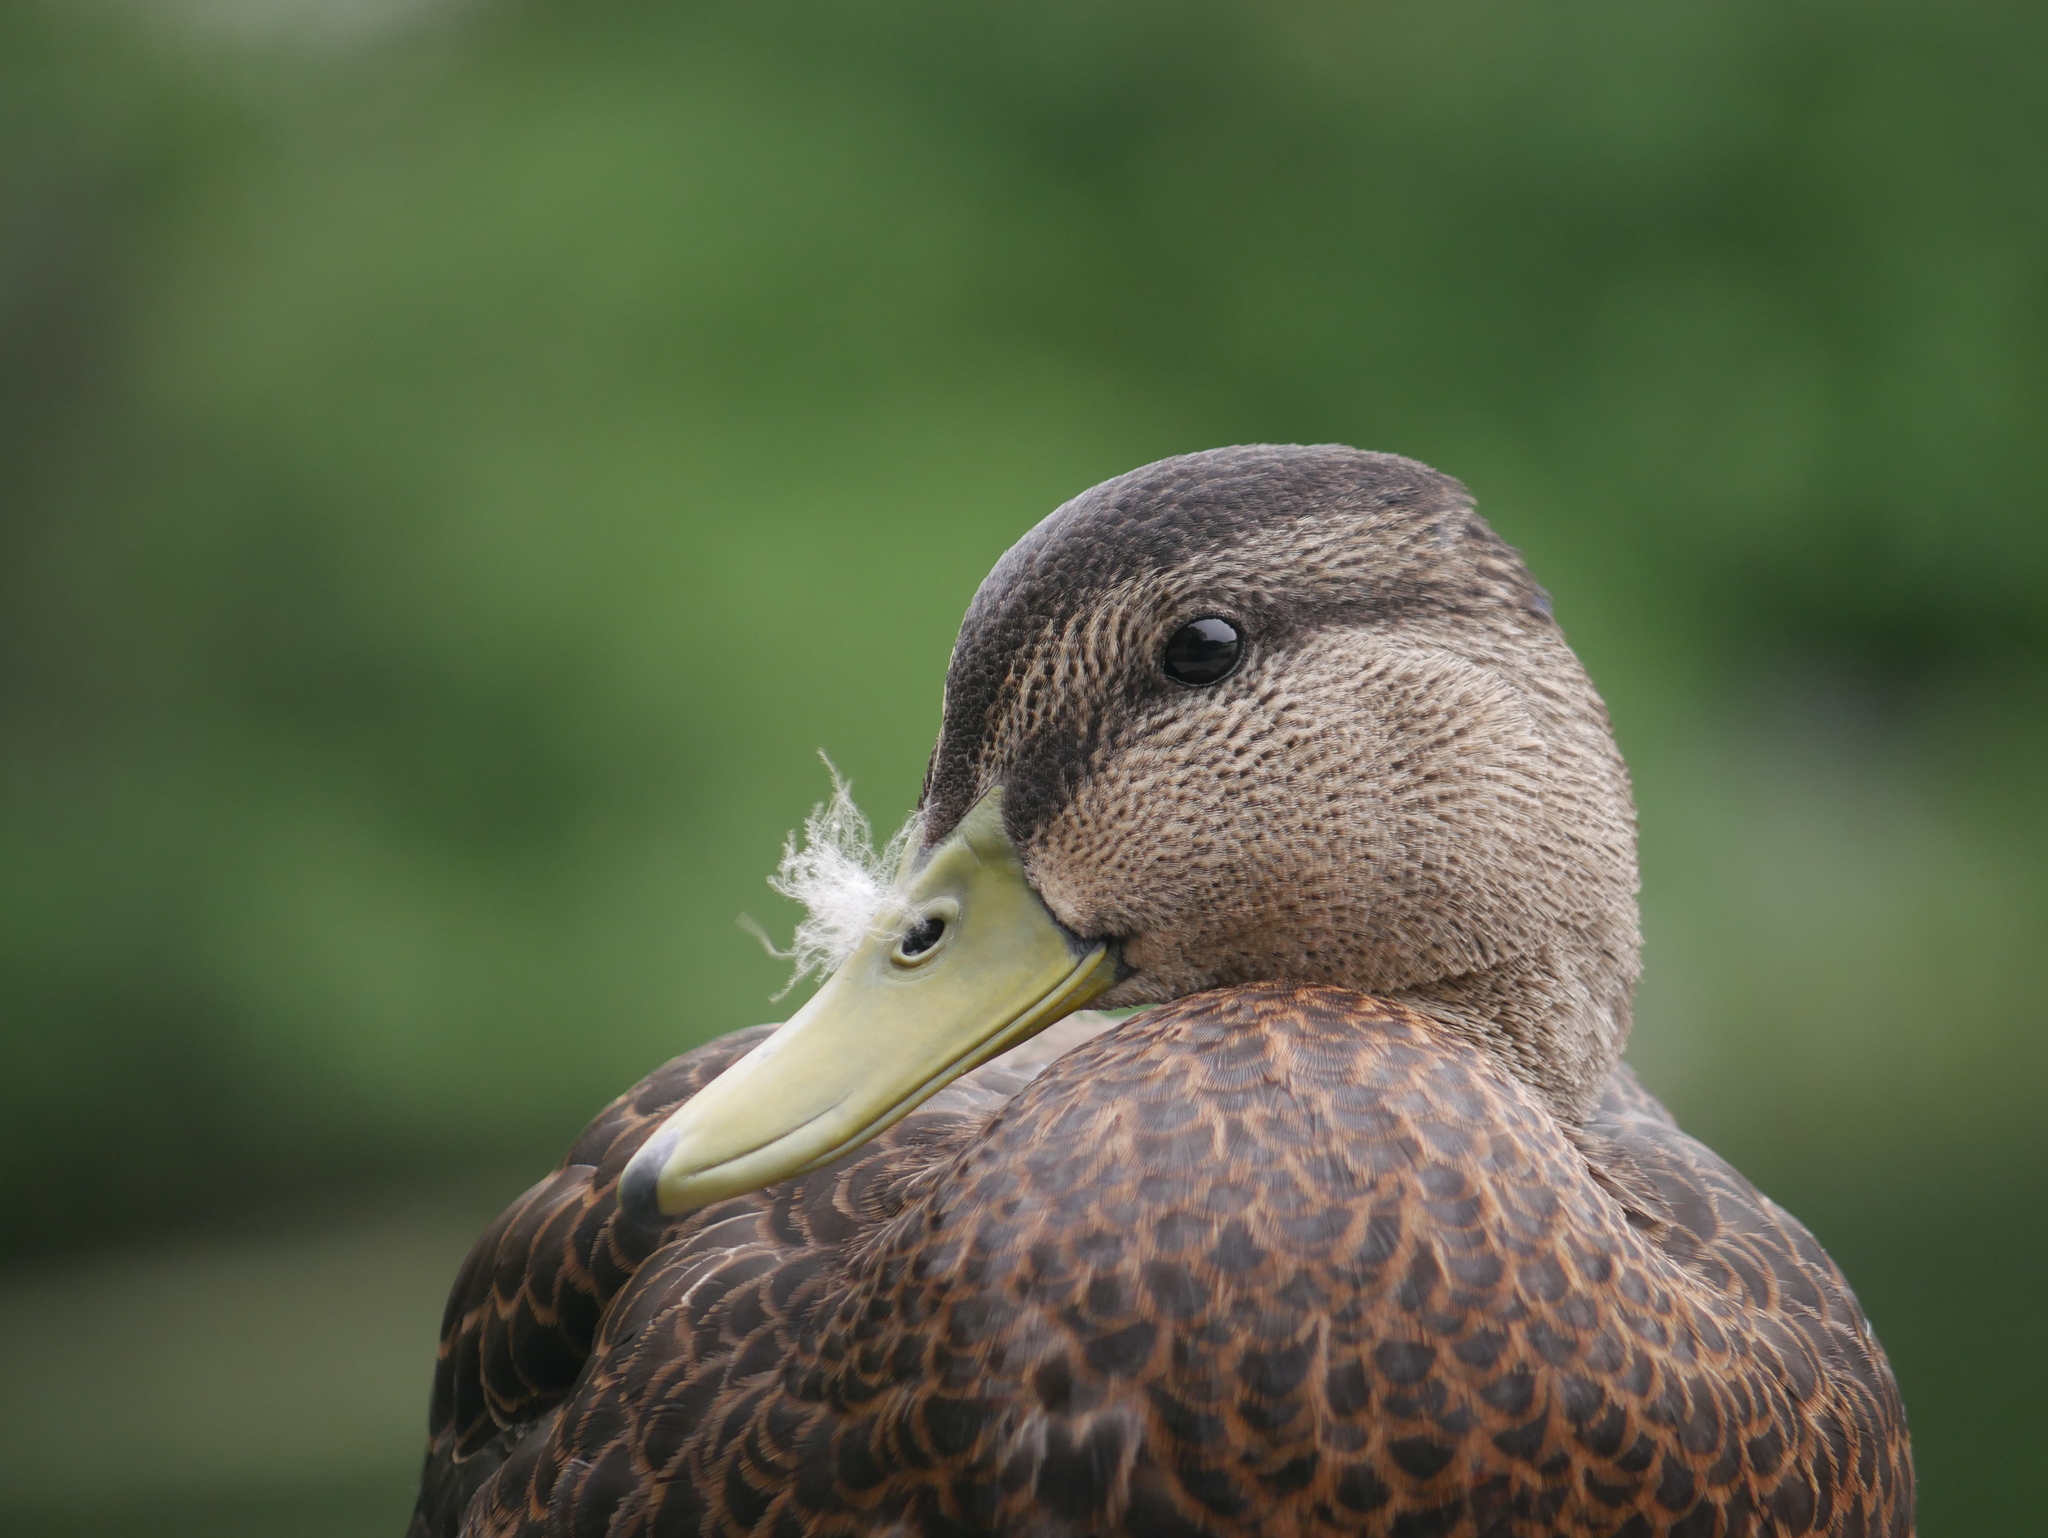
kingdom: Animalia
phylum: Chordata
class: Aves
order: Anseriformes
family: Anatidae
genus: Anas
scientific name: Anas rubripes
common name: American black duck
